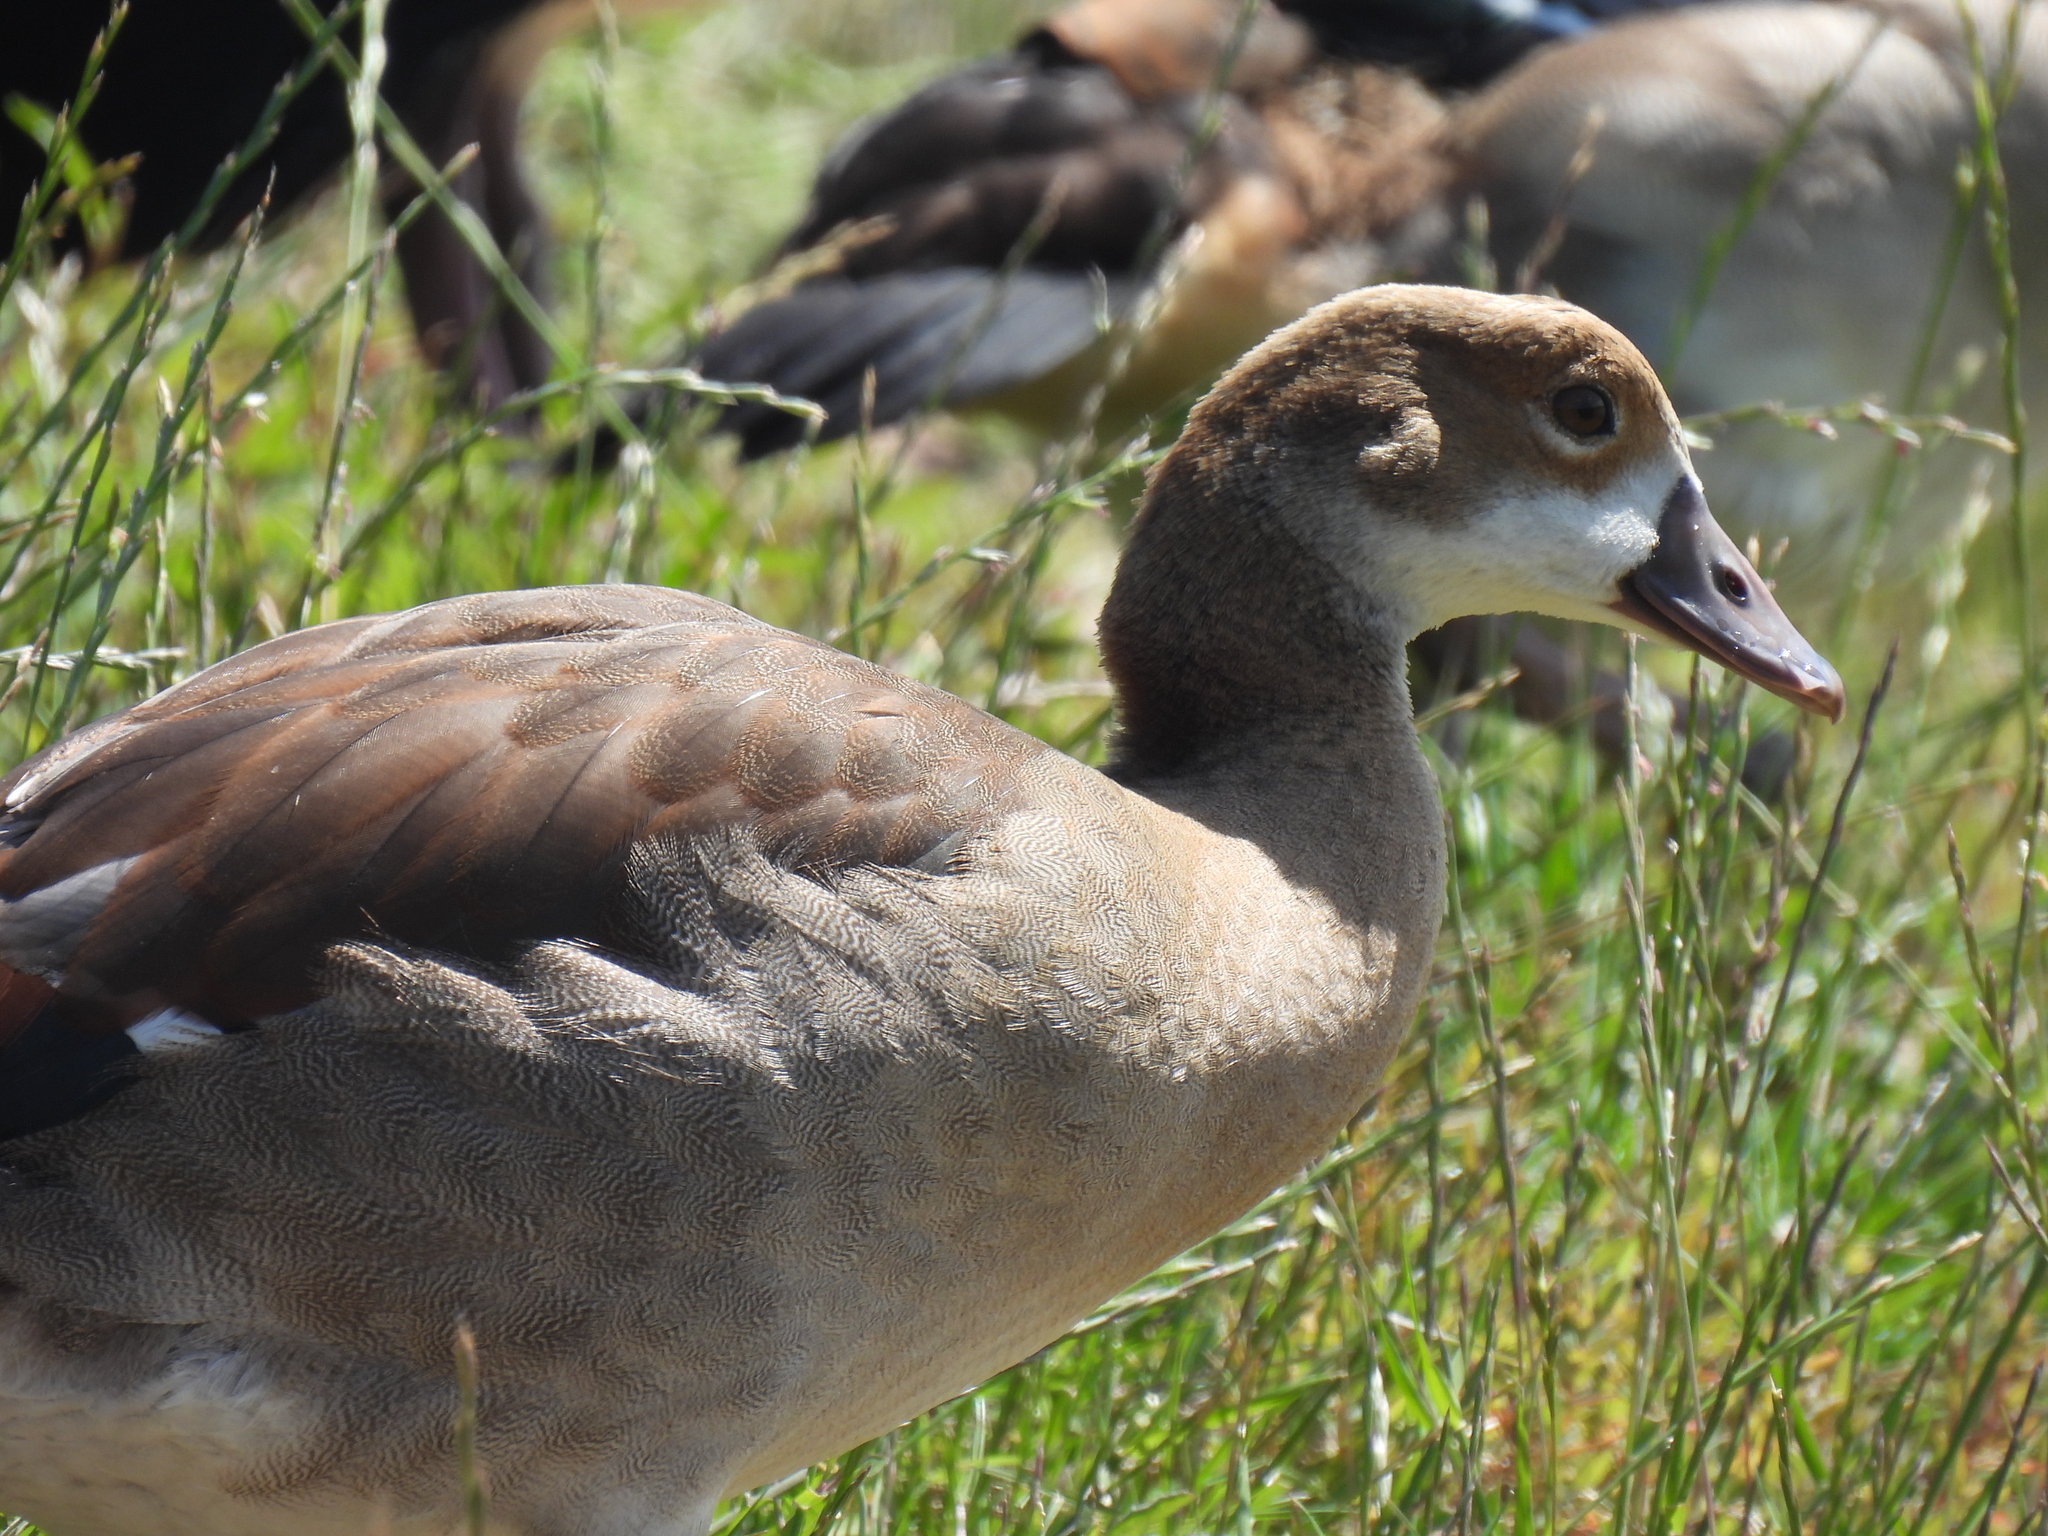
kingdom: Animalia
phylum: Chordata
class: Aves
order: Anseriformes
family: Anatidae
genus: Alopochen
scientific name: Alopochen aegyptiaca
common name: Egyptian goose
